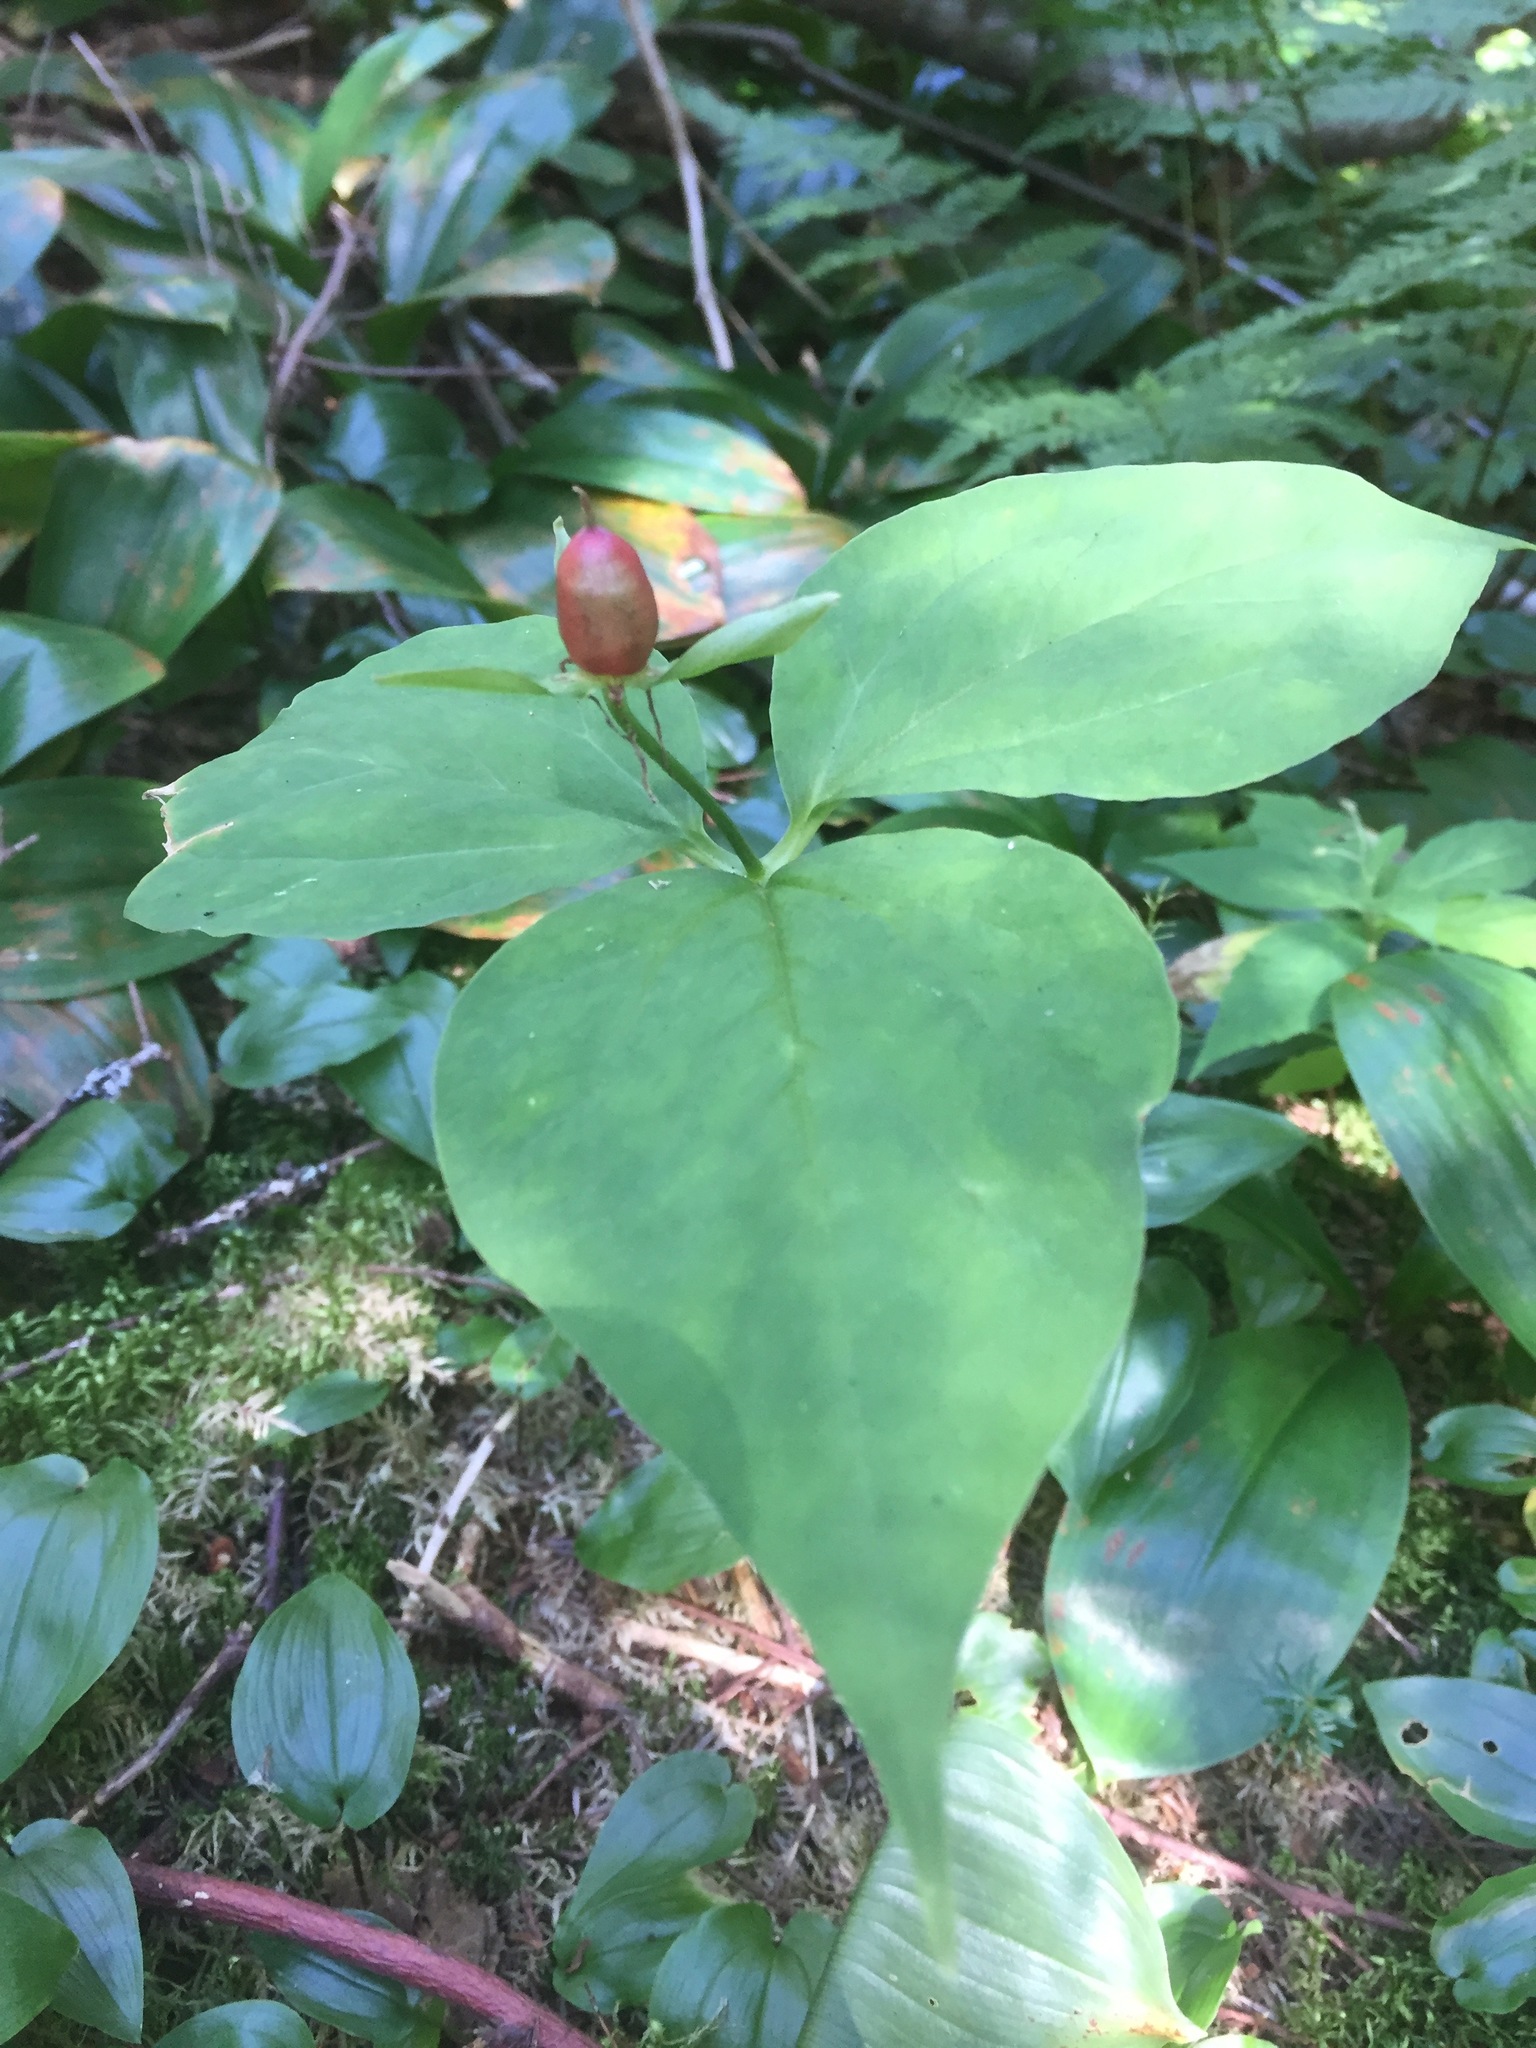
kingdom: Plantae
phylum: Tracheophyta
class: Liliopsida
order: Liliales
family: Melanthiaceae
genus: Trillium
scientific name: Trillium undulatum
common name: Paint trillium
